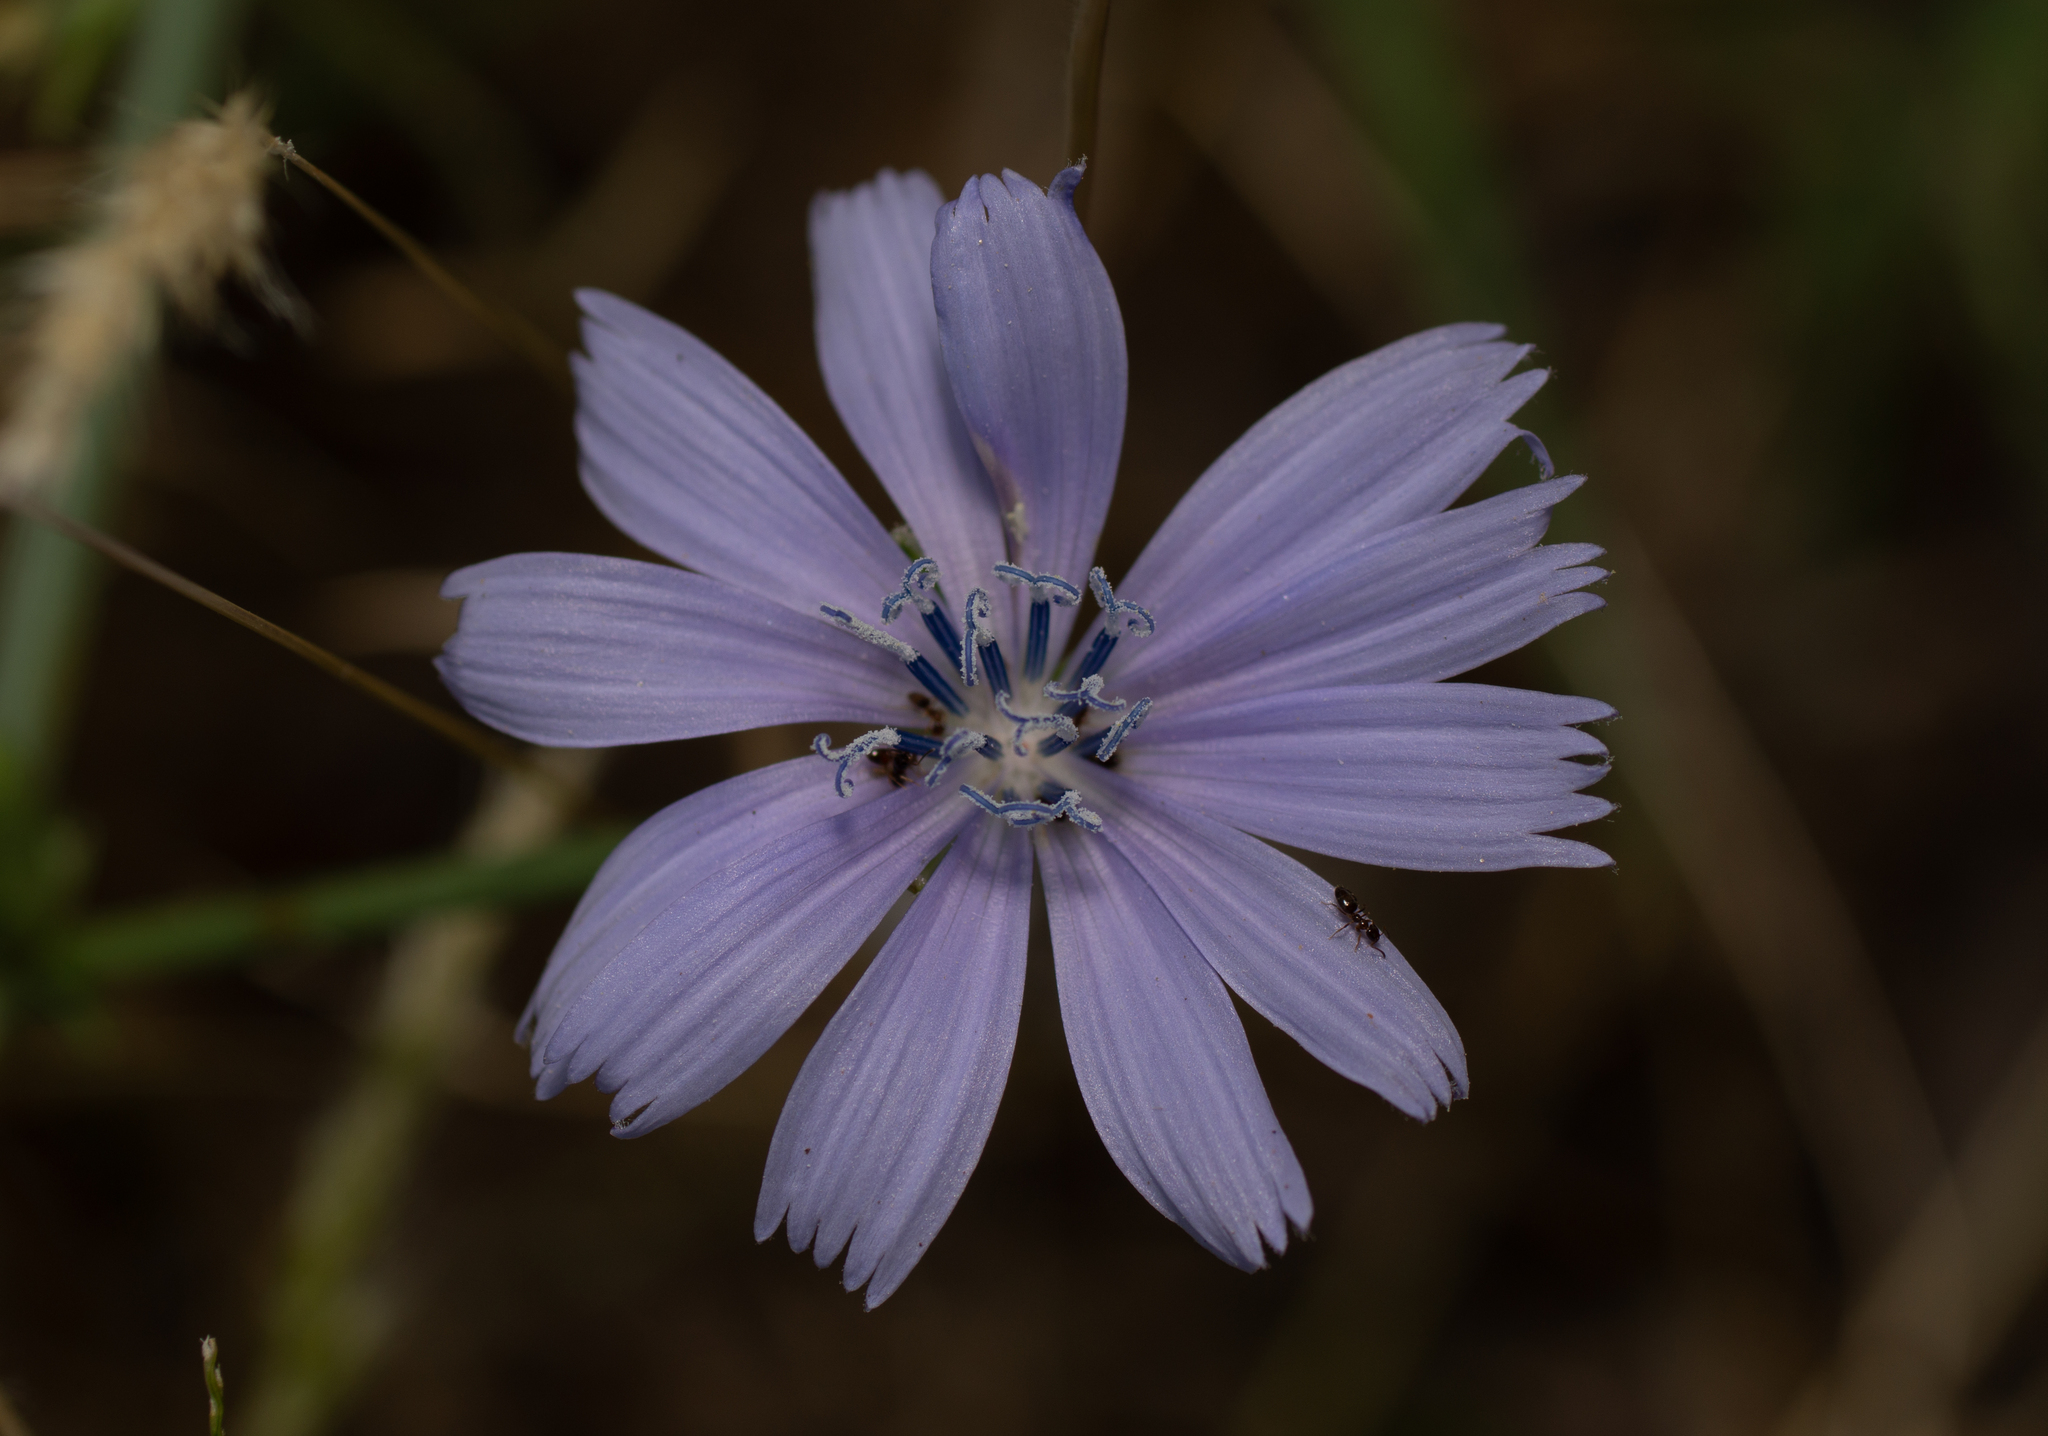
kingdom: Plantae
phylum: Tracheophyta
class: Magnoliopsida
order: Asterales
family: Asteraceae
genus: Cichorium
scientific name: Cichorium intybus
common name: Chicory
